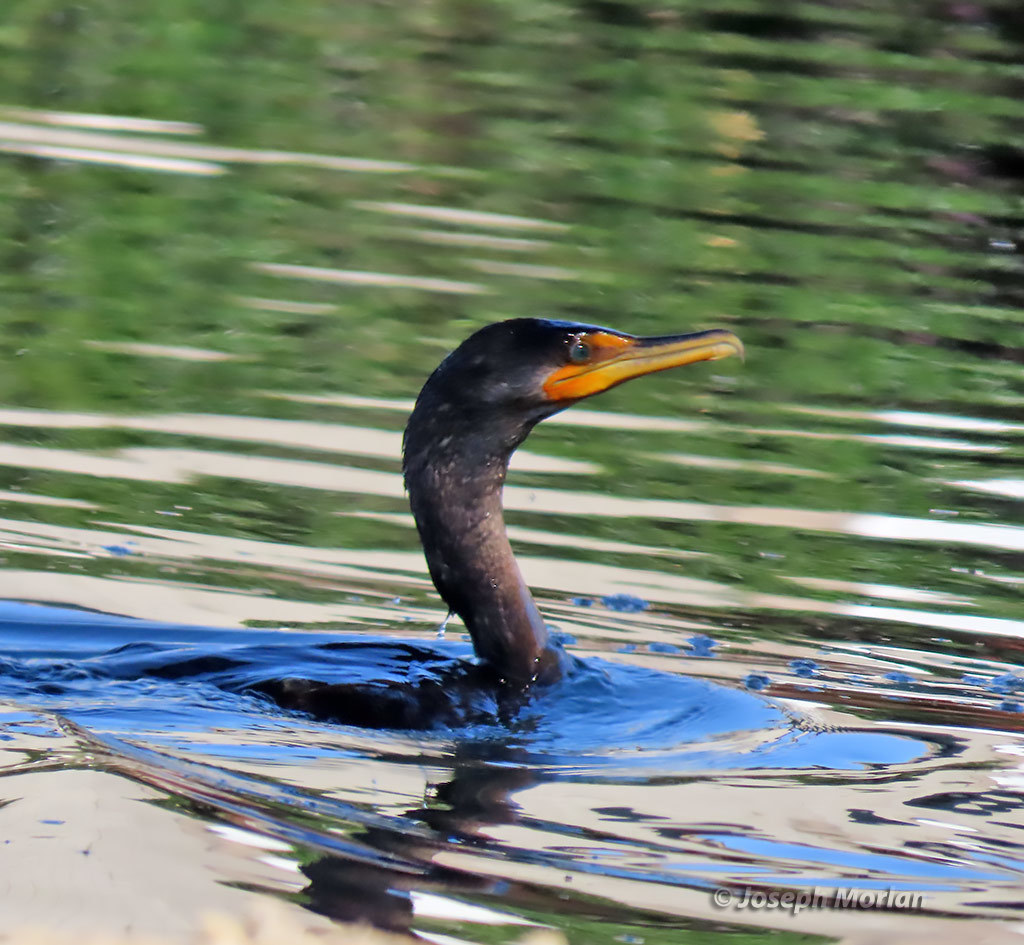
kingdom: Animalia
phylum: Chordata
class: Aves
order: Suliformes
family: Phalacrocoracidae
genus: Phalacrocorax
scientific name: Phalacrocorax auritus
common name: Double-crested cormorant
